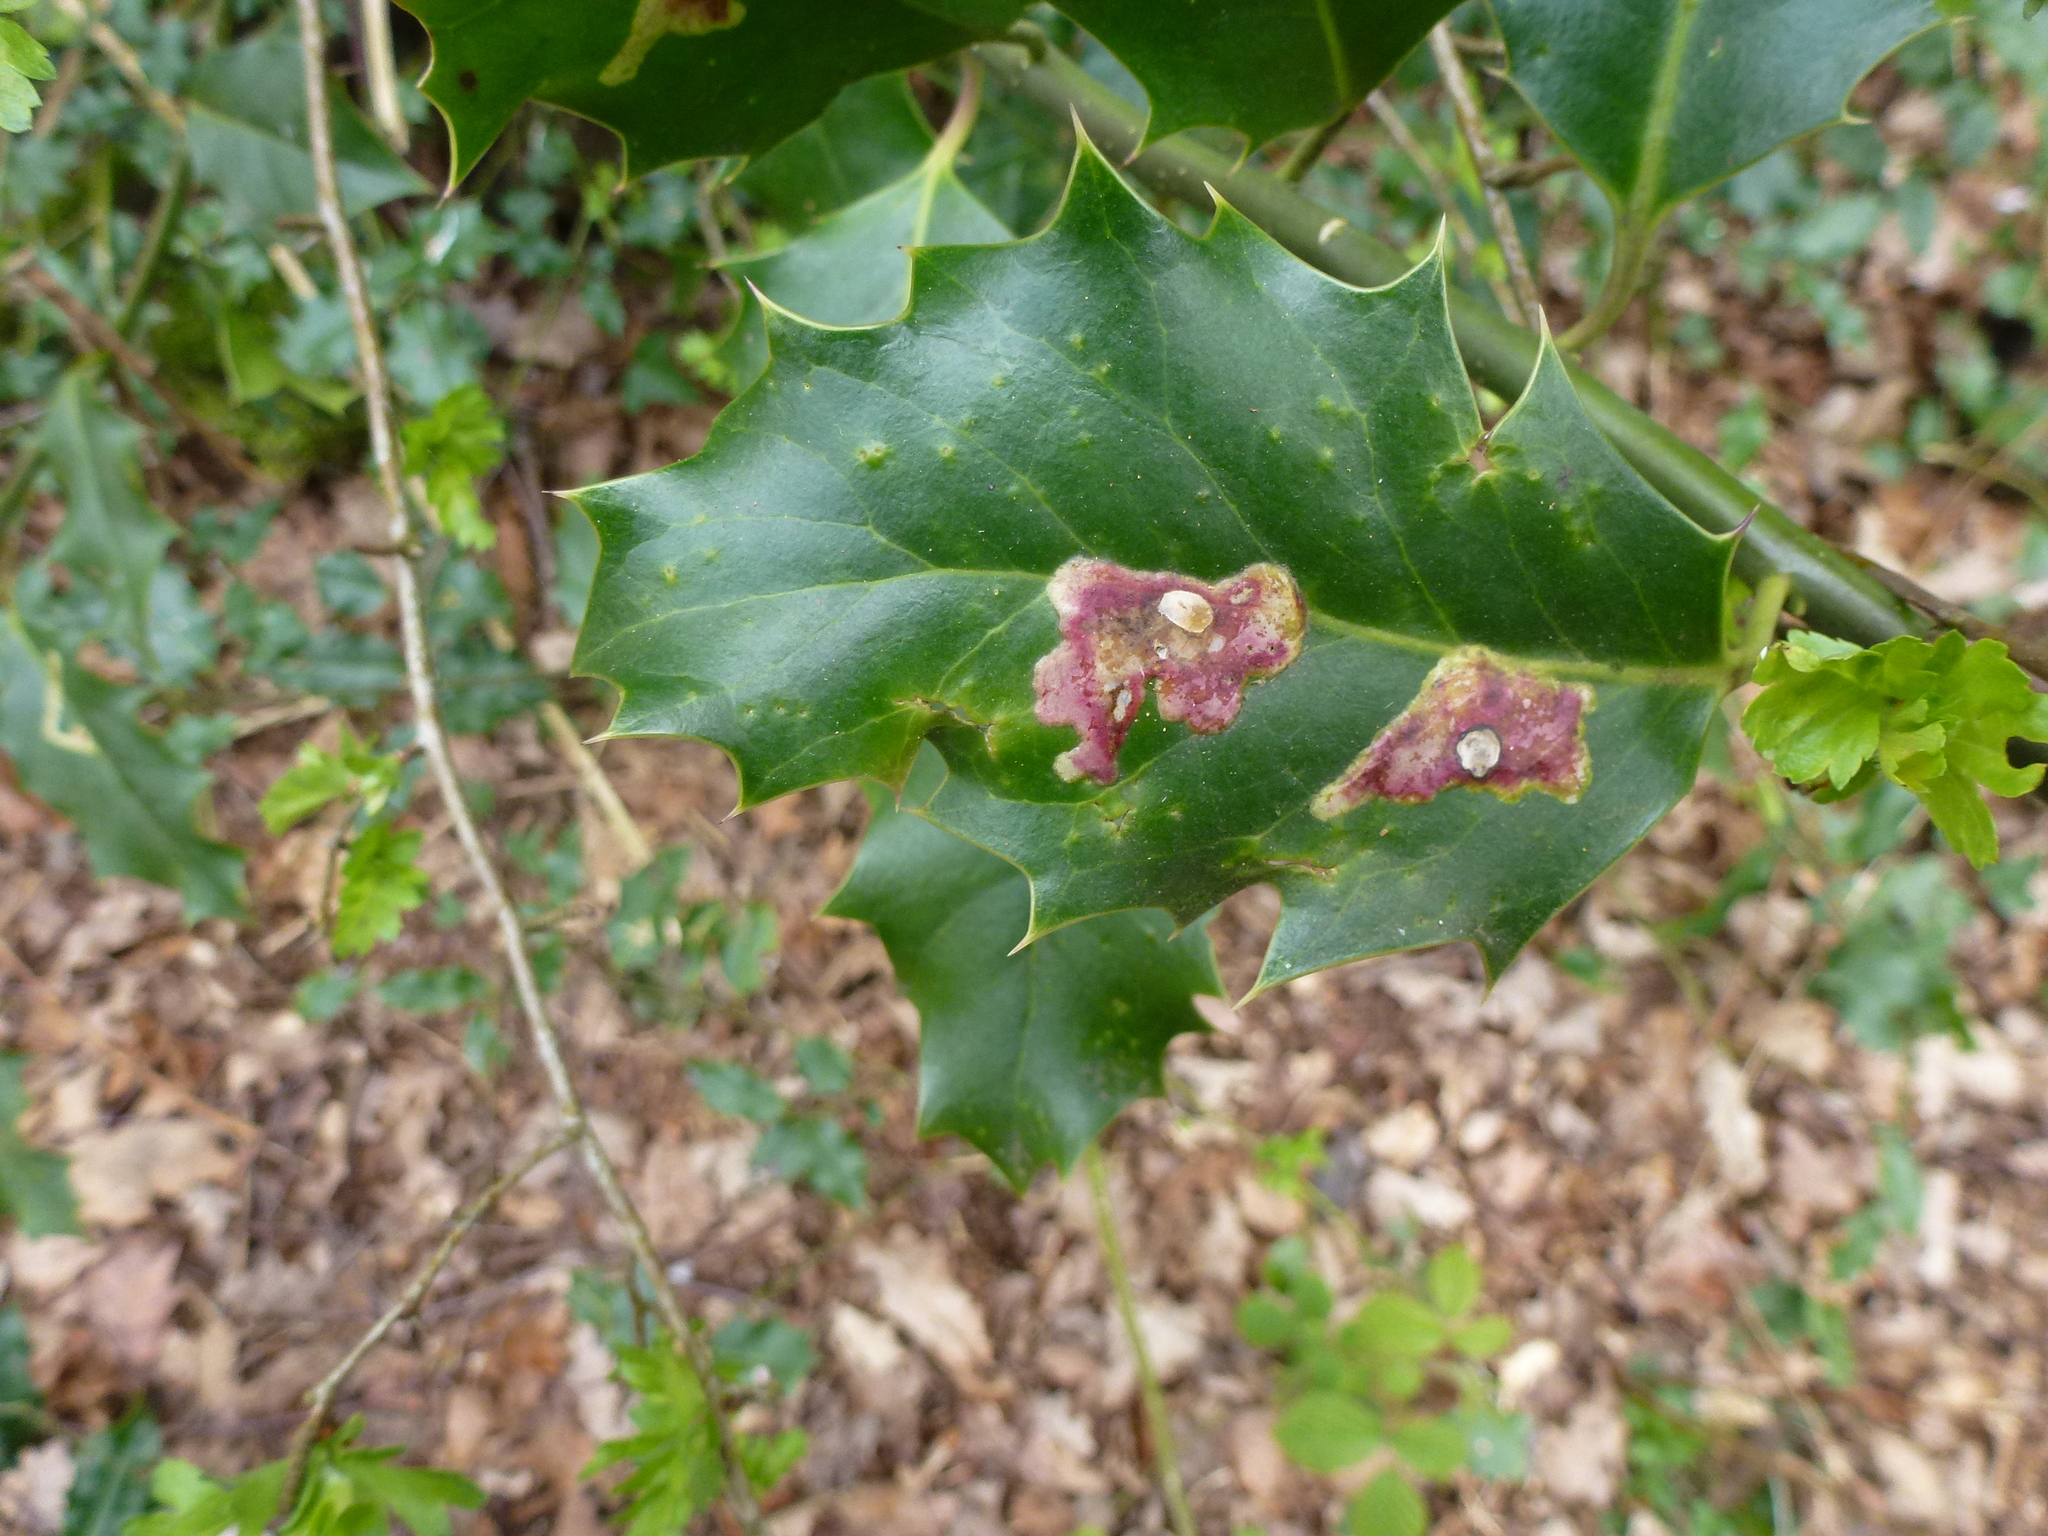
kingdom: Animalia
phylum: Arthropoda
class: Insecta
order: Diptera
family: Agromyzidae
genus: Phytomyza
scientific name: Phytomyza ilicis
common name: Holly leafminer
